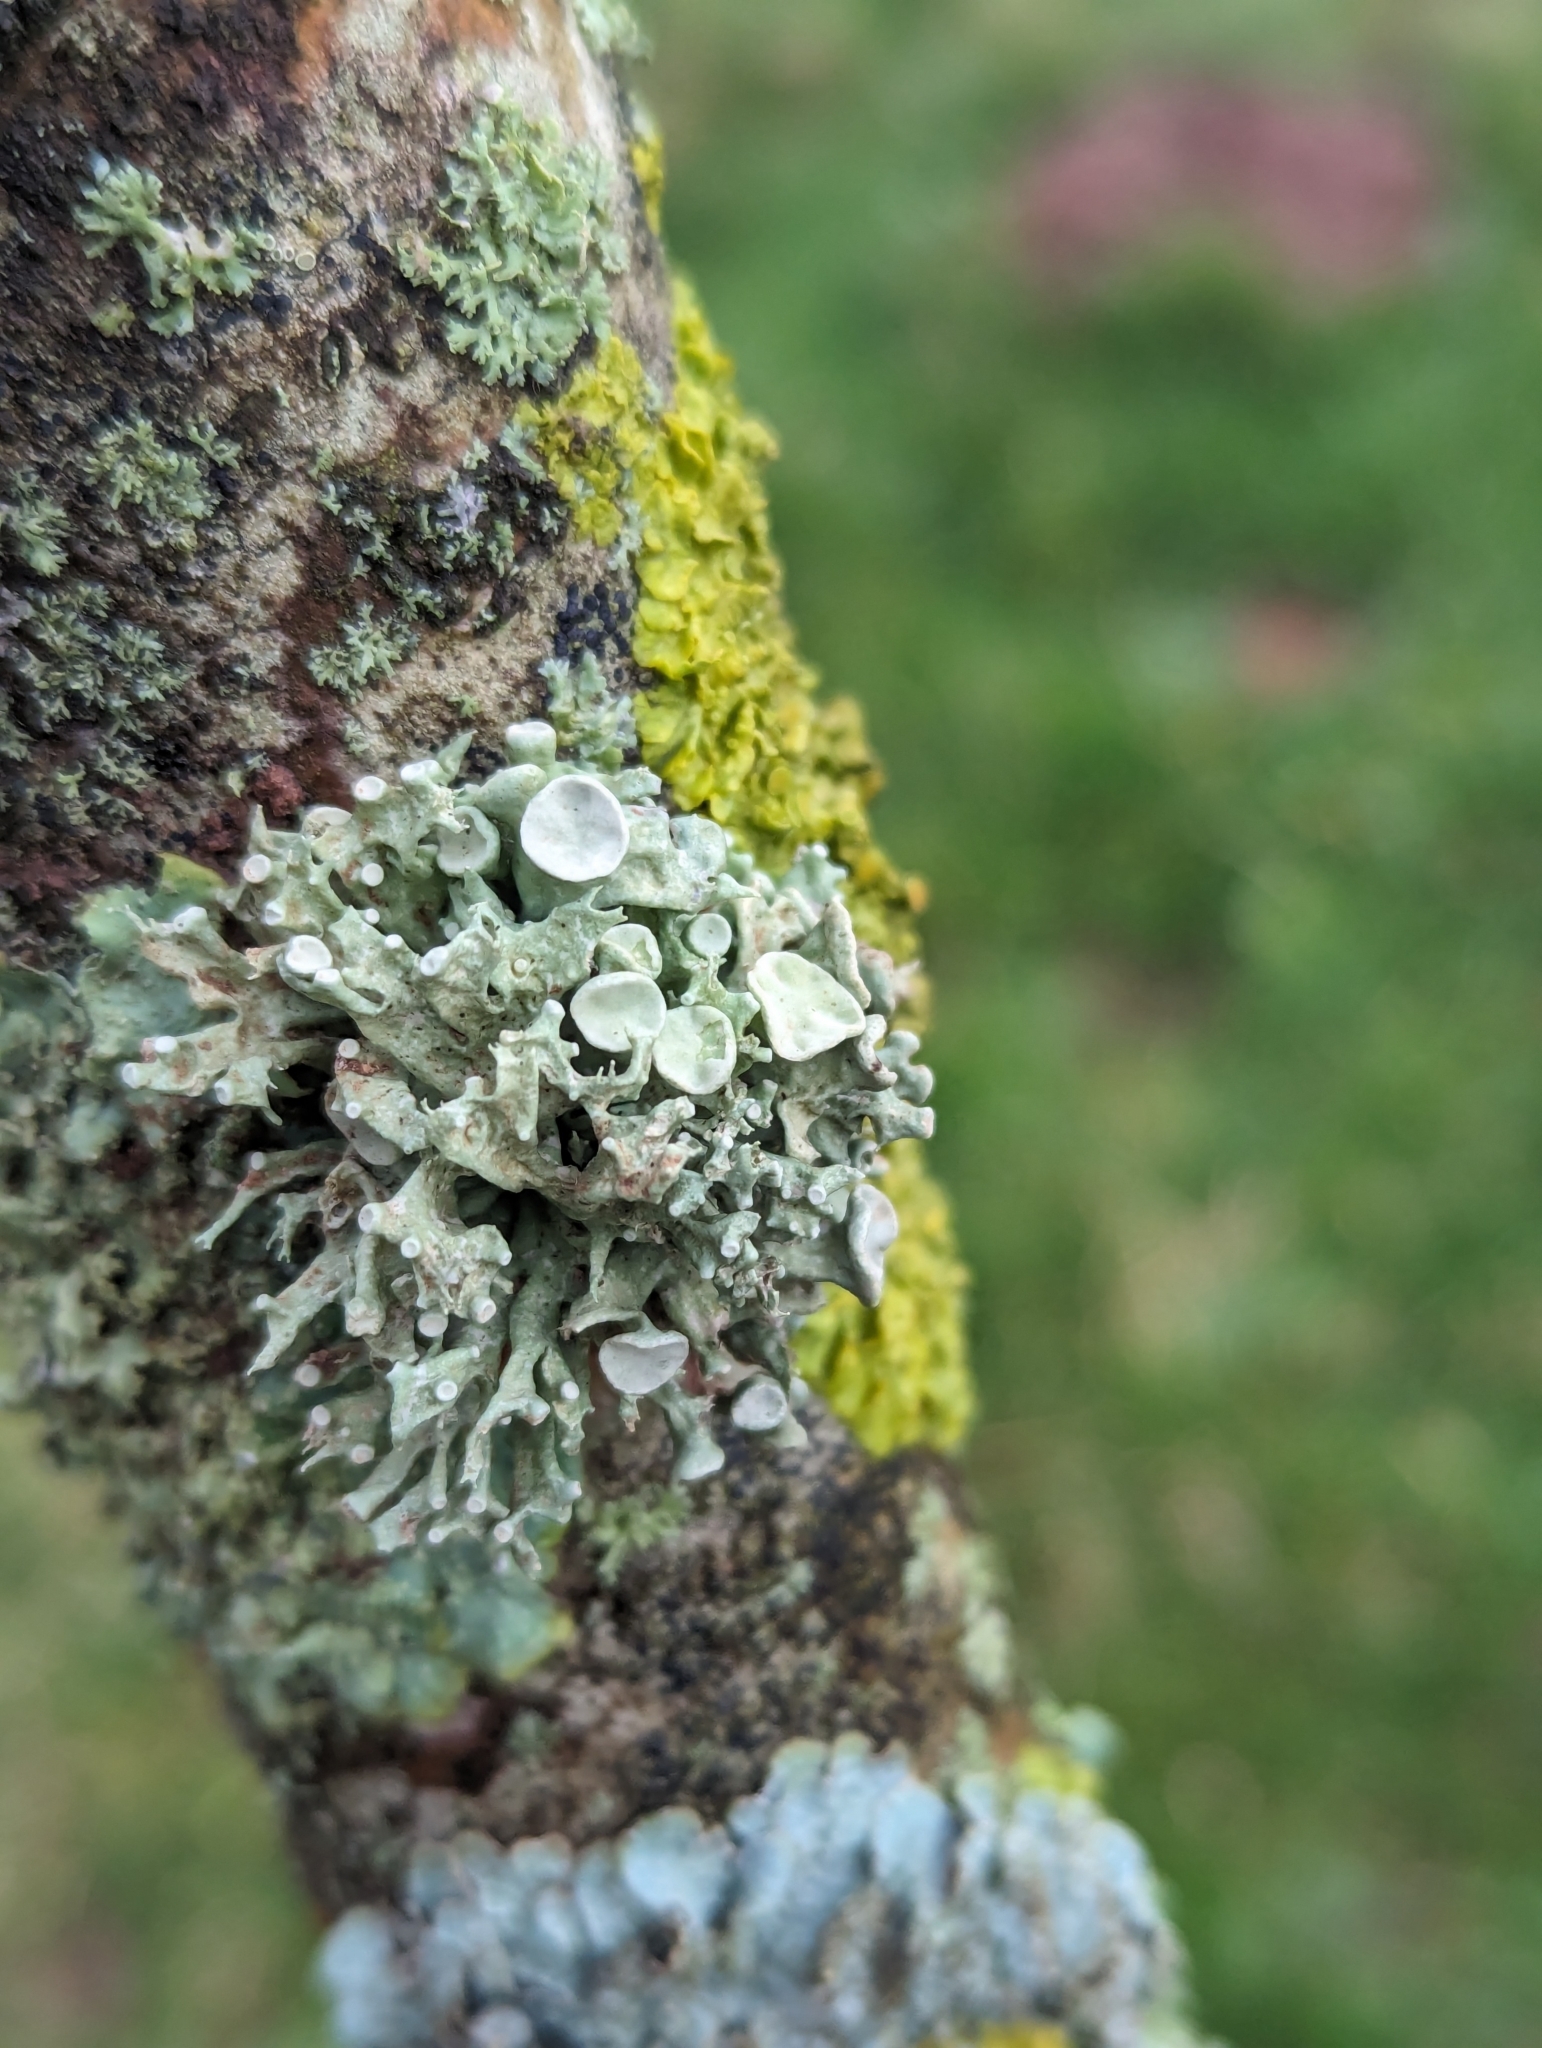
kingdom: Fungi
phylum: Ascomycota
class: Lecanoromycetes
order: Lecanorales
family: Ramalinaceae
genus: Ramalina
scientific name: Ramalina fastigiata
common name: Dotted ribbon lichen
